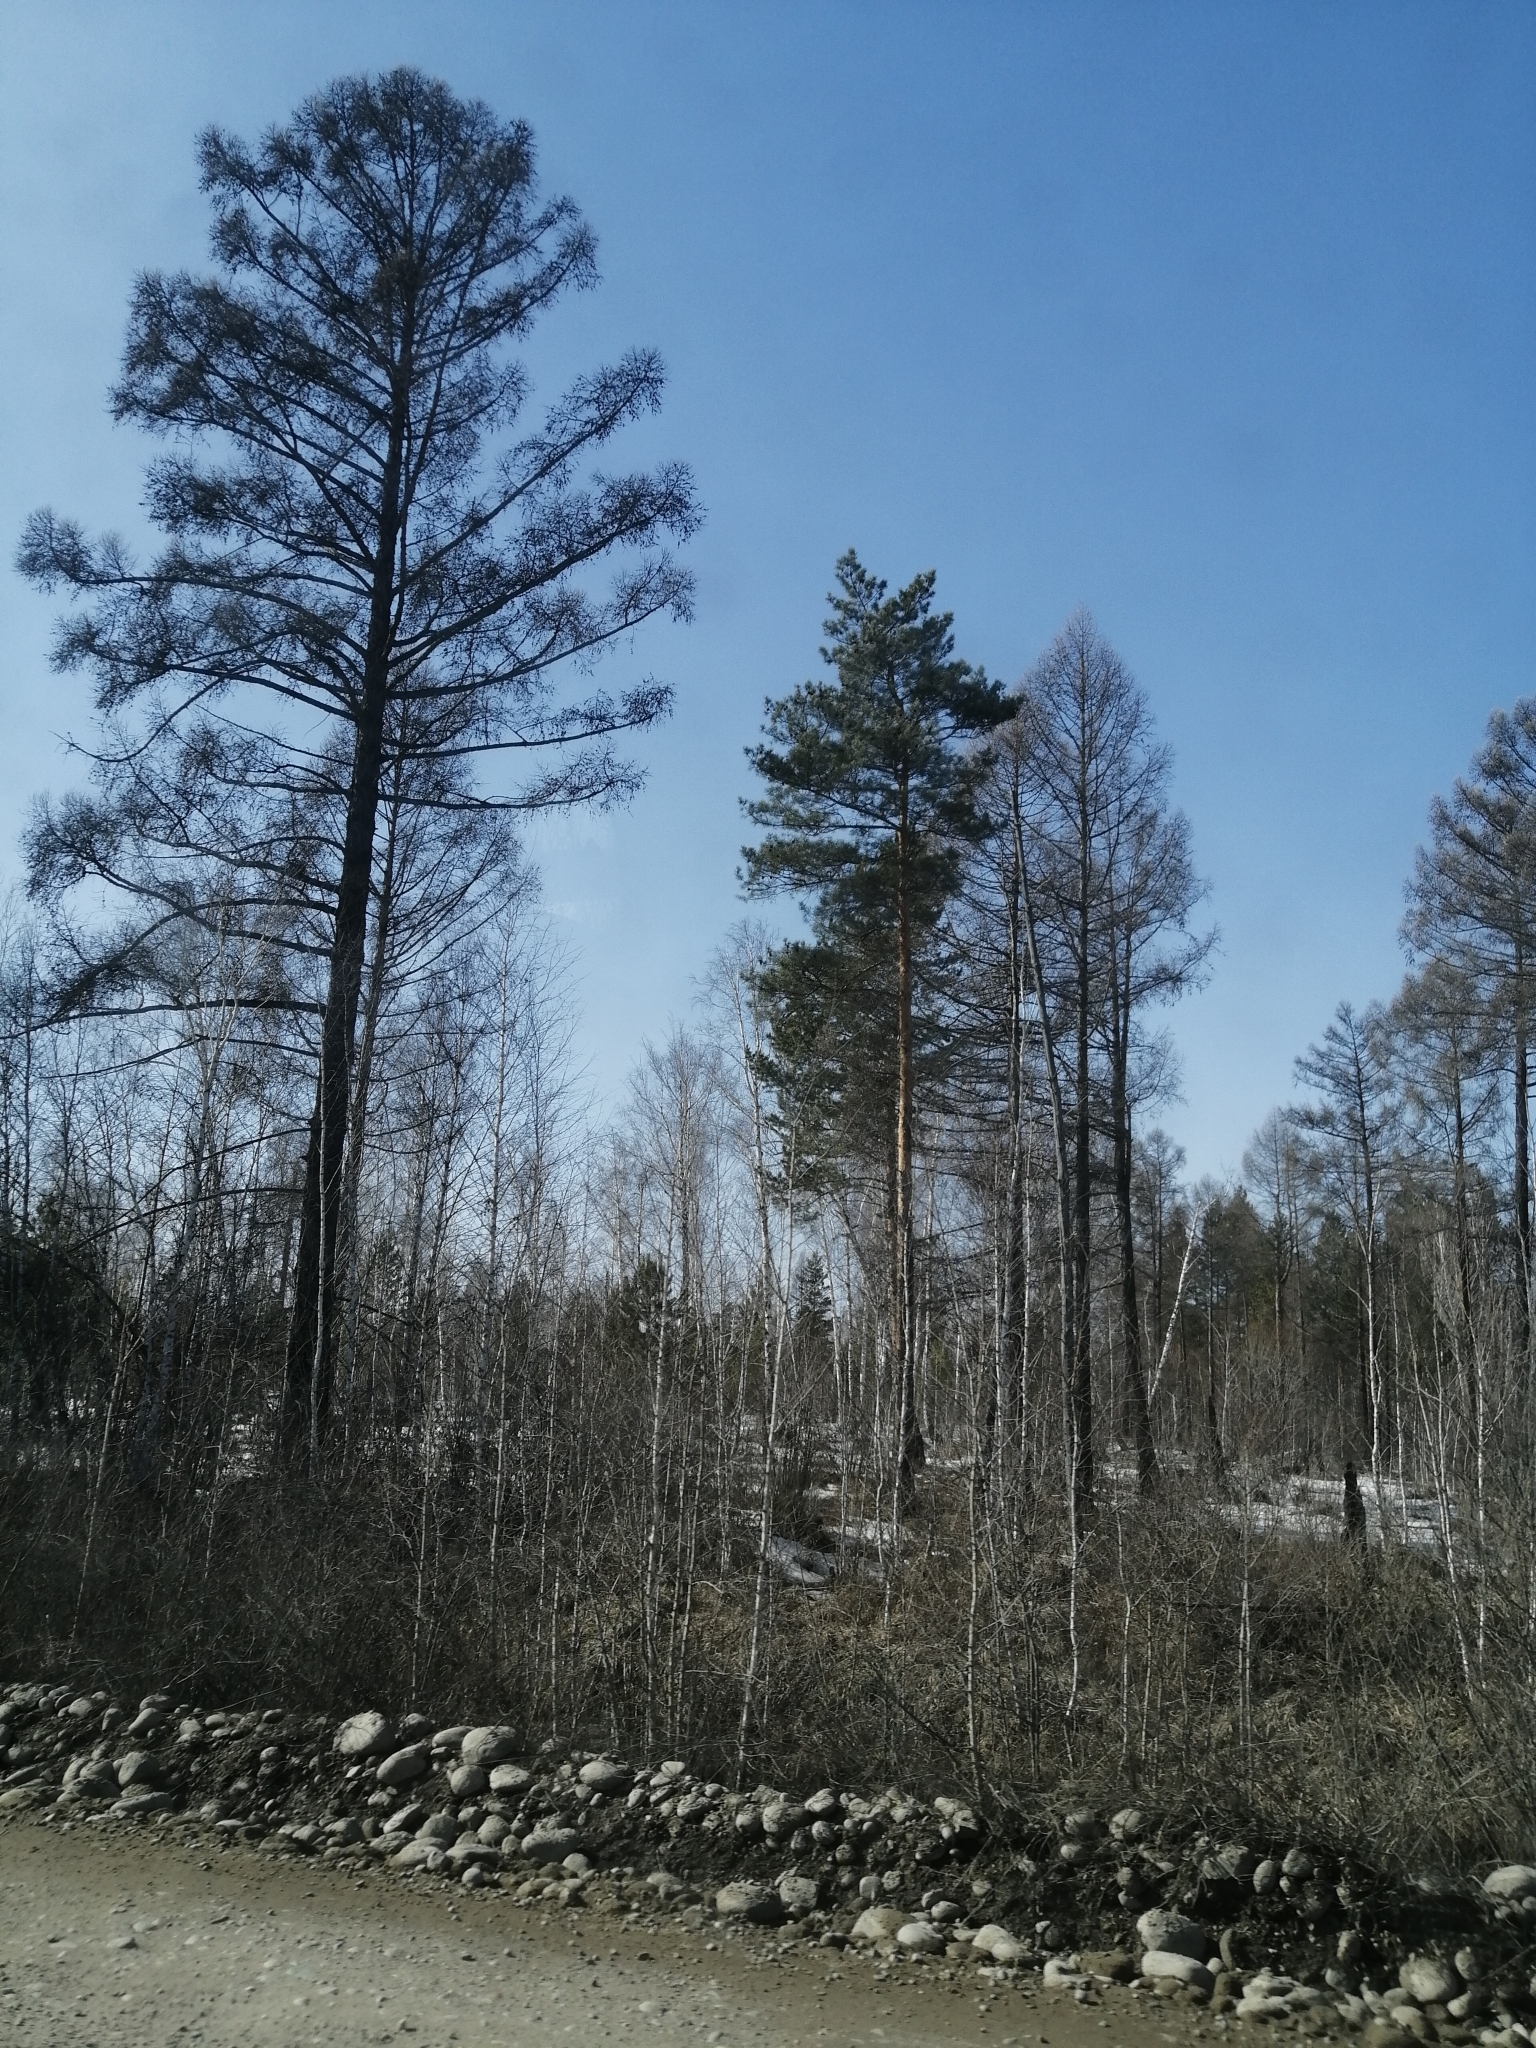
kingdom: Plantae
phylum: Tracheophyta
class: Pinopsida
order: Pinales
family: Pinaceae
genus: Larix
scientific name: Larix sibirica
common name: Siberian larch
